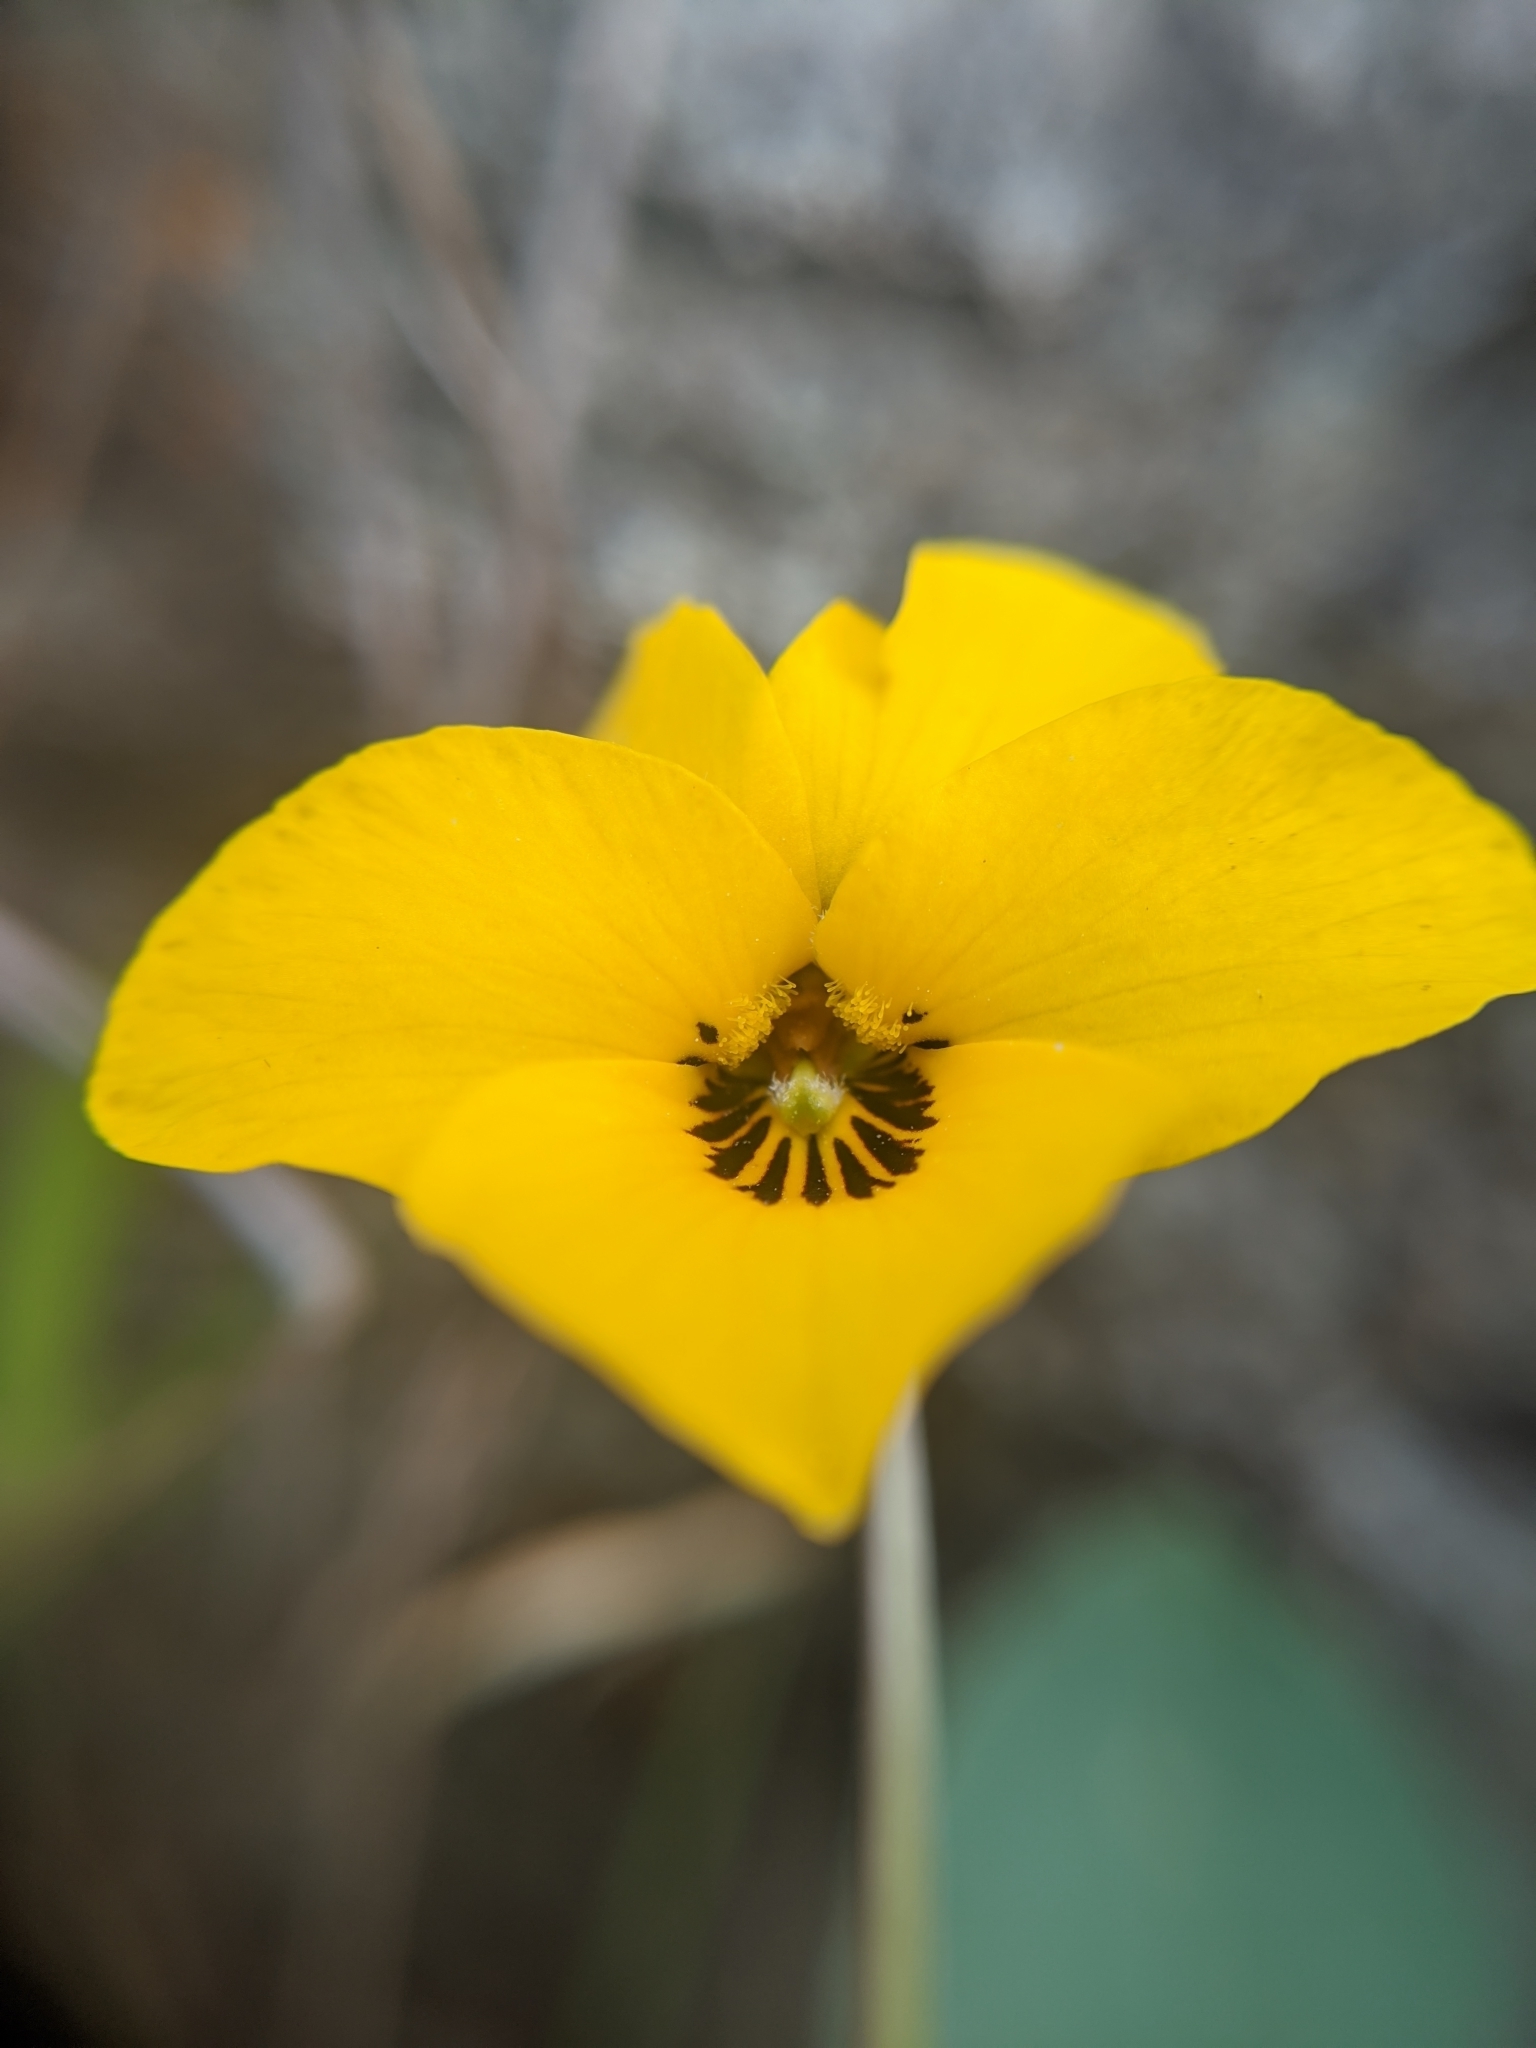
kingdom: Plantae
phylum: Tracheophyta
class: Magnoliopsida
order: Malpighiales
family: Violaceae
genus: Viola
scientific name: Viola pedunculata
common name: California golden violet
